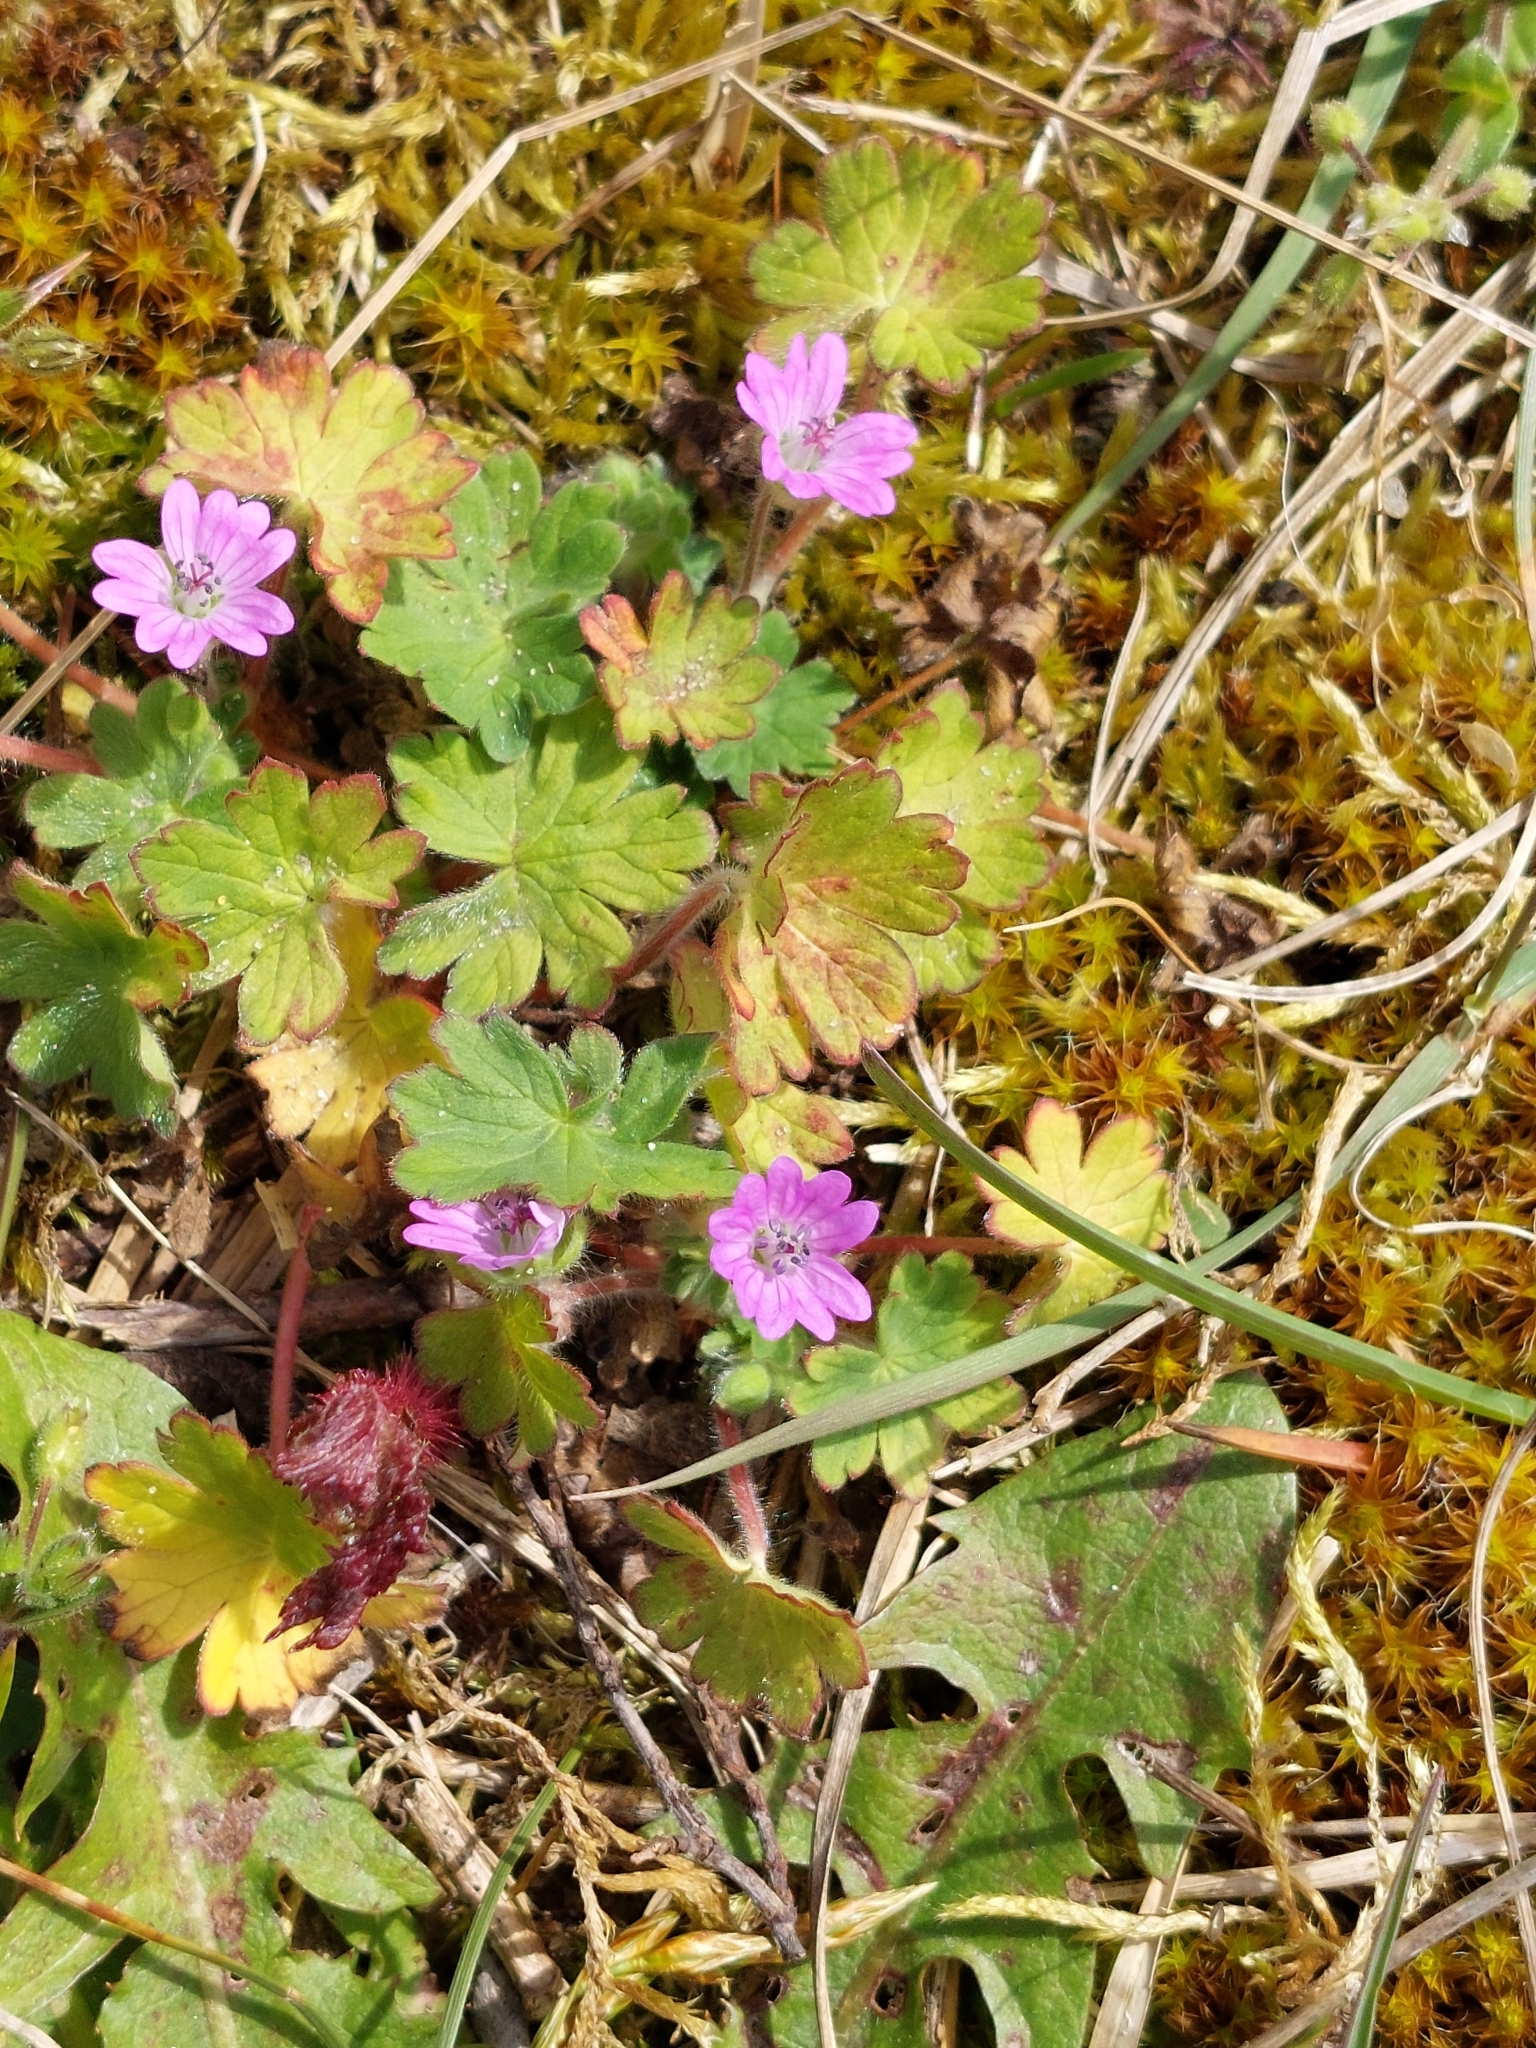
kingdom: Plantae
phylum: Tracheophyta
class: Magnoliopsida
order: Geraniales
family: Geraniaceae
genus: Geranium
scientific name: Geranium molle
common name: Dove's-foot crane's-bill
